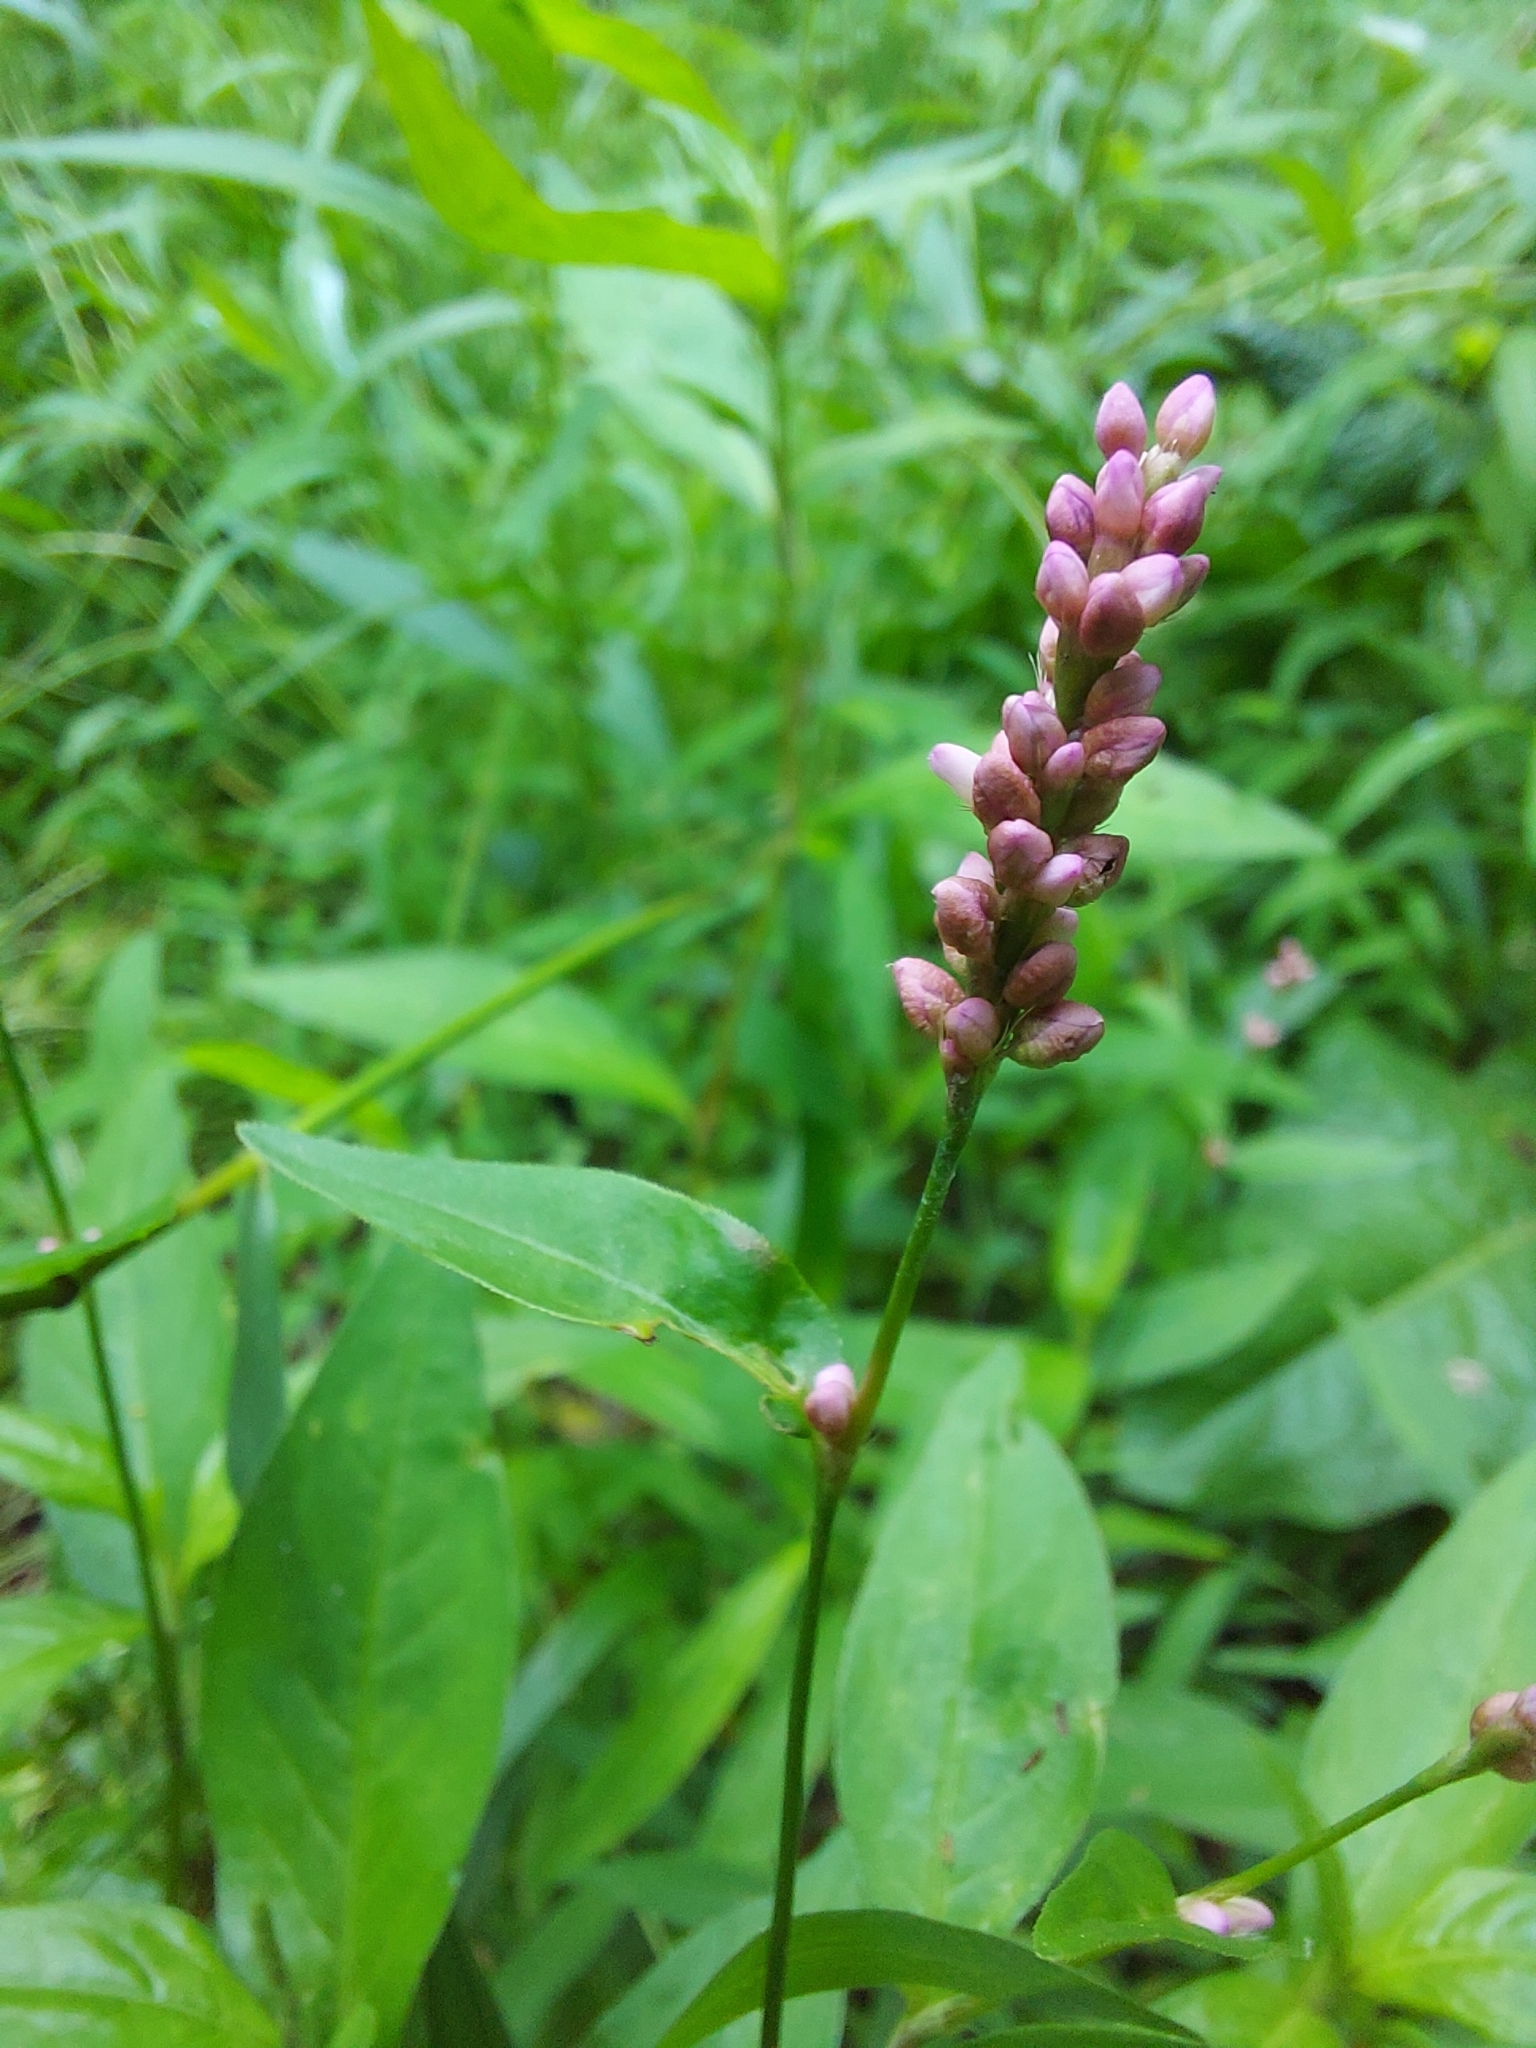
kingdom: Plantae
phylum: Tracheophyta
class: Magnoliopsida
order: Caryophyllales
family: Polygonaceae
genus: Persicaria
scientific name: Persicaria longiseta
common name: Bristly lady's-thumb
